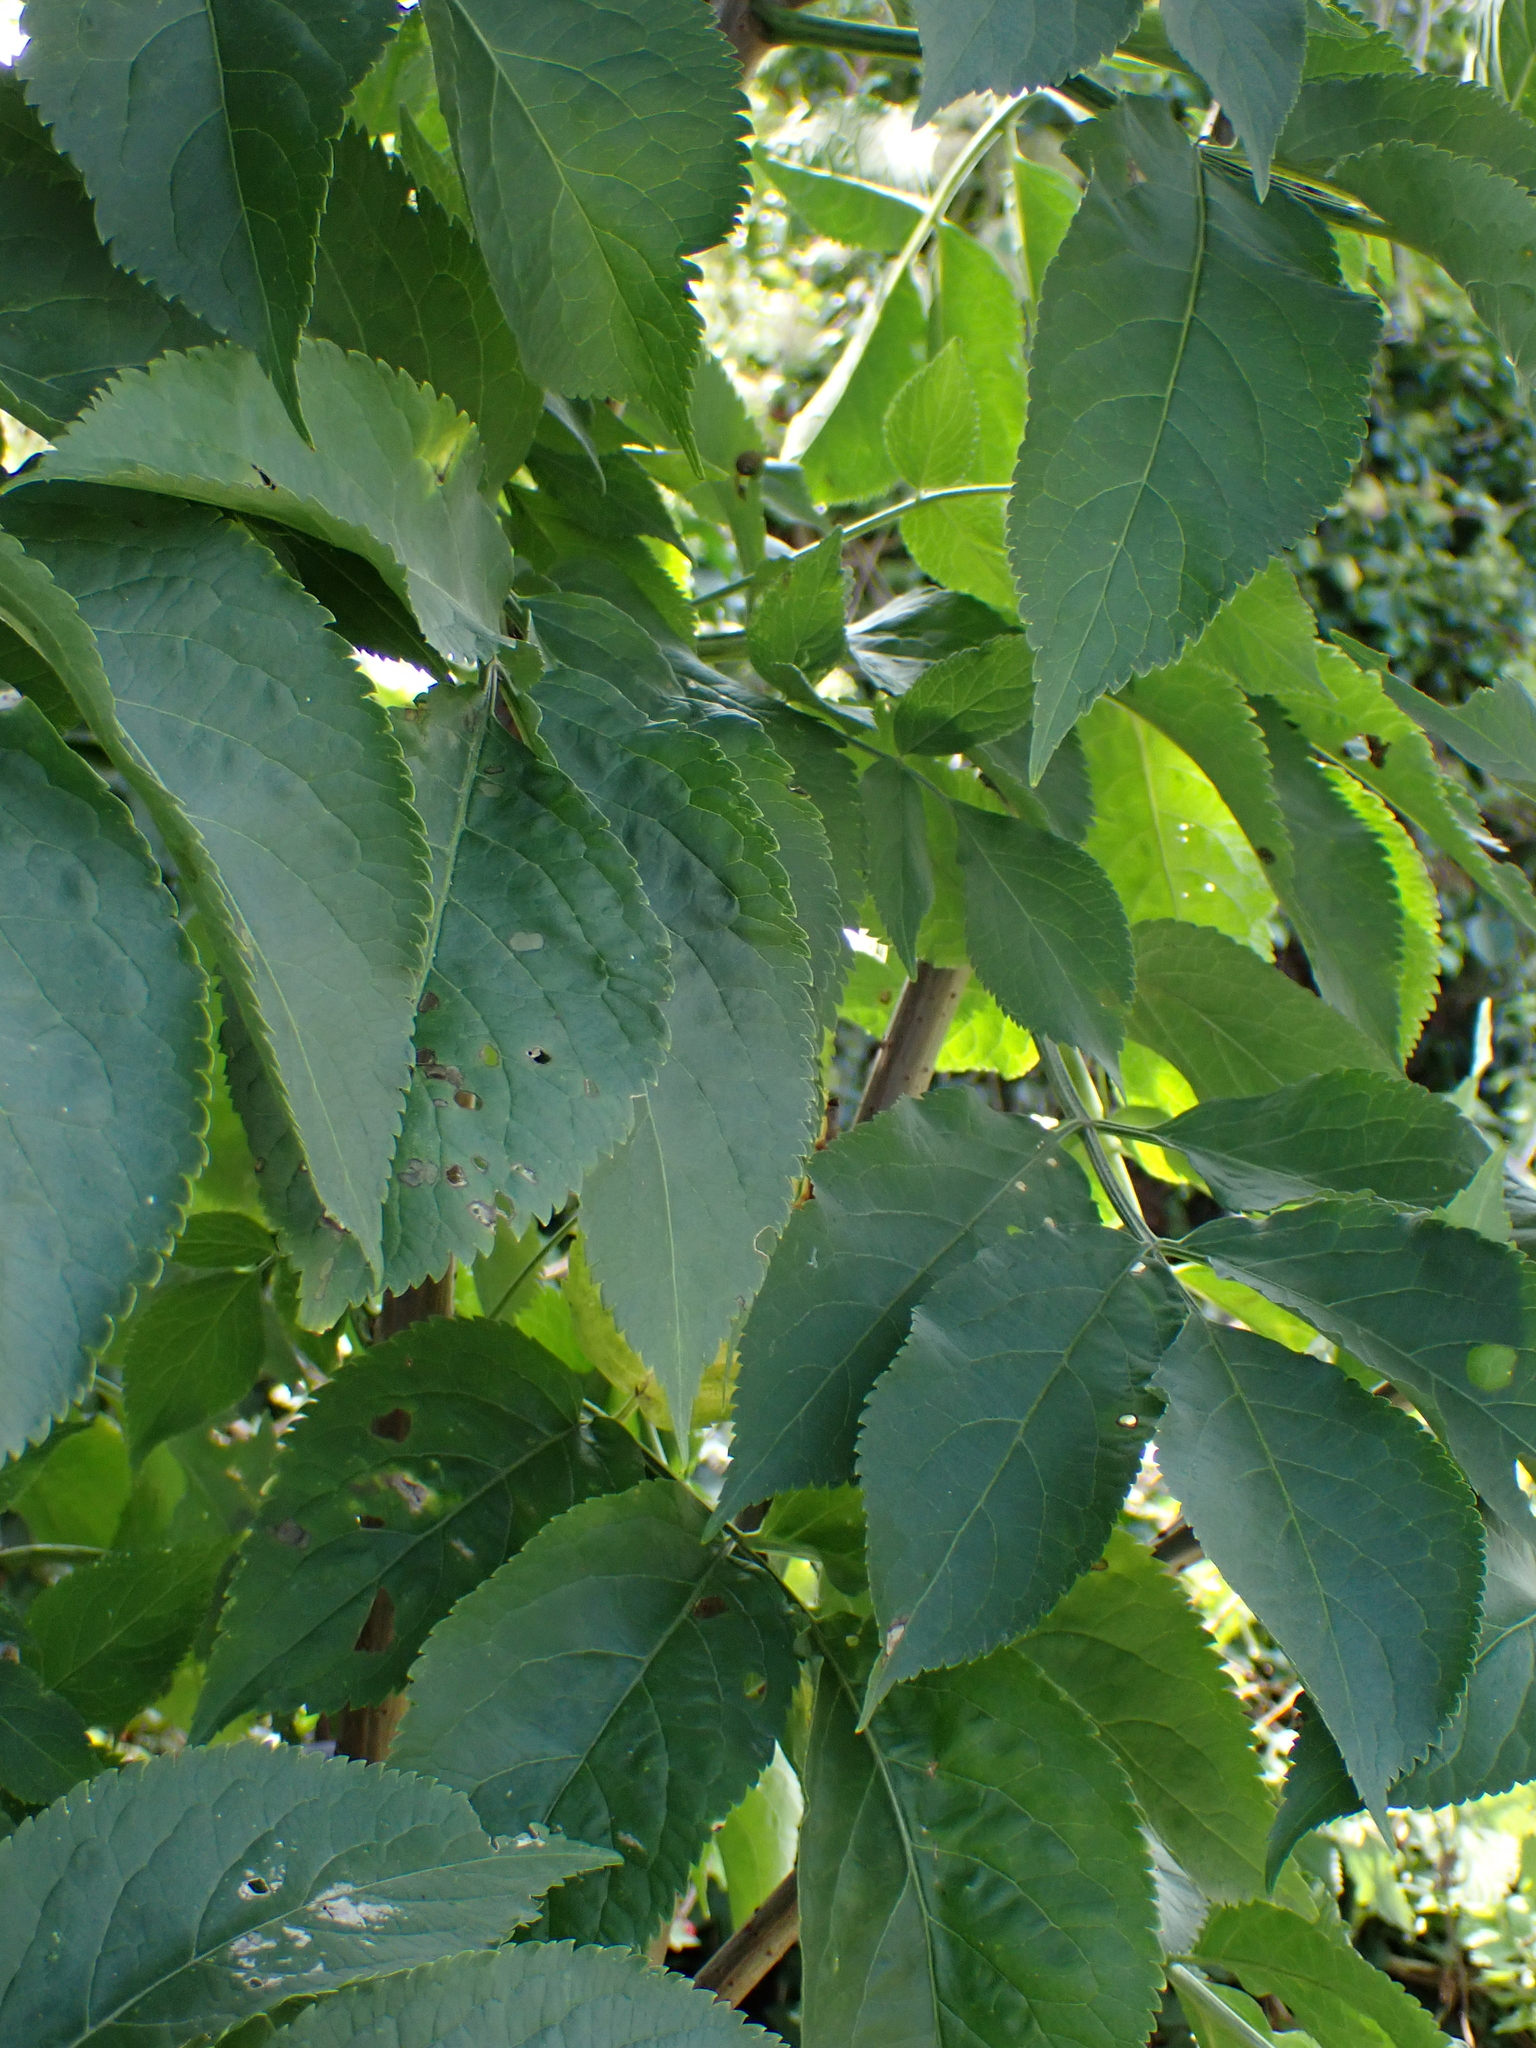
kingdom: Plantae
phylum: Tracheophyta
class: Magnoliopsida
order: Dipsacales
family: Viburnaceae
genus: Sambucus
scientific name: Sambucus nigra
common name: Elder
